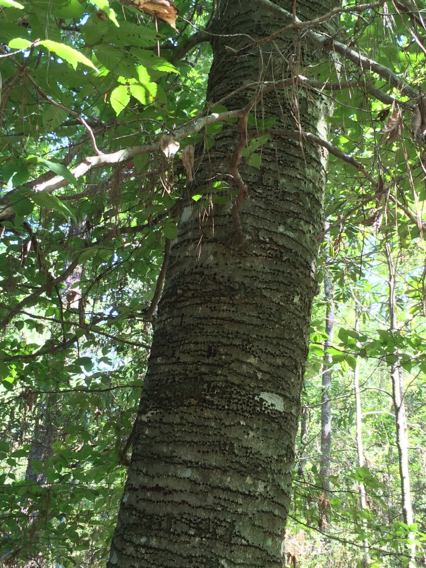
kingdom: Plantae
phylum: Tracheophyta
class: Magnoliopsida
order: Fagales
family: Fagaceae
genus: Fagus
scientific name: Fagus grandifolia
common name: American beech
